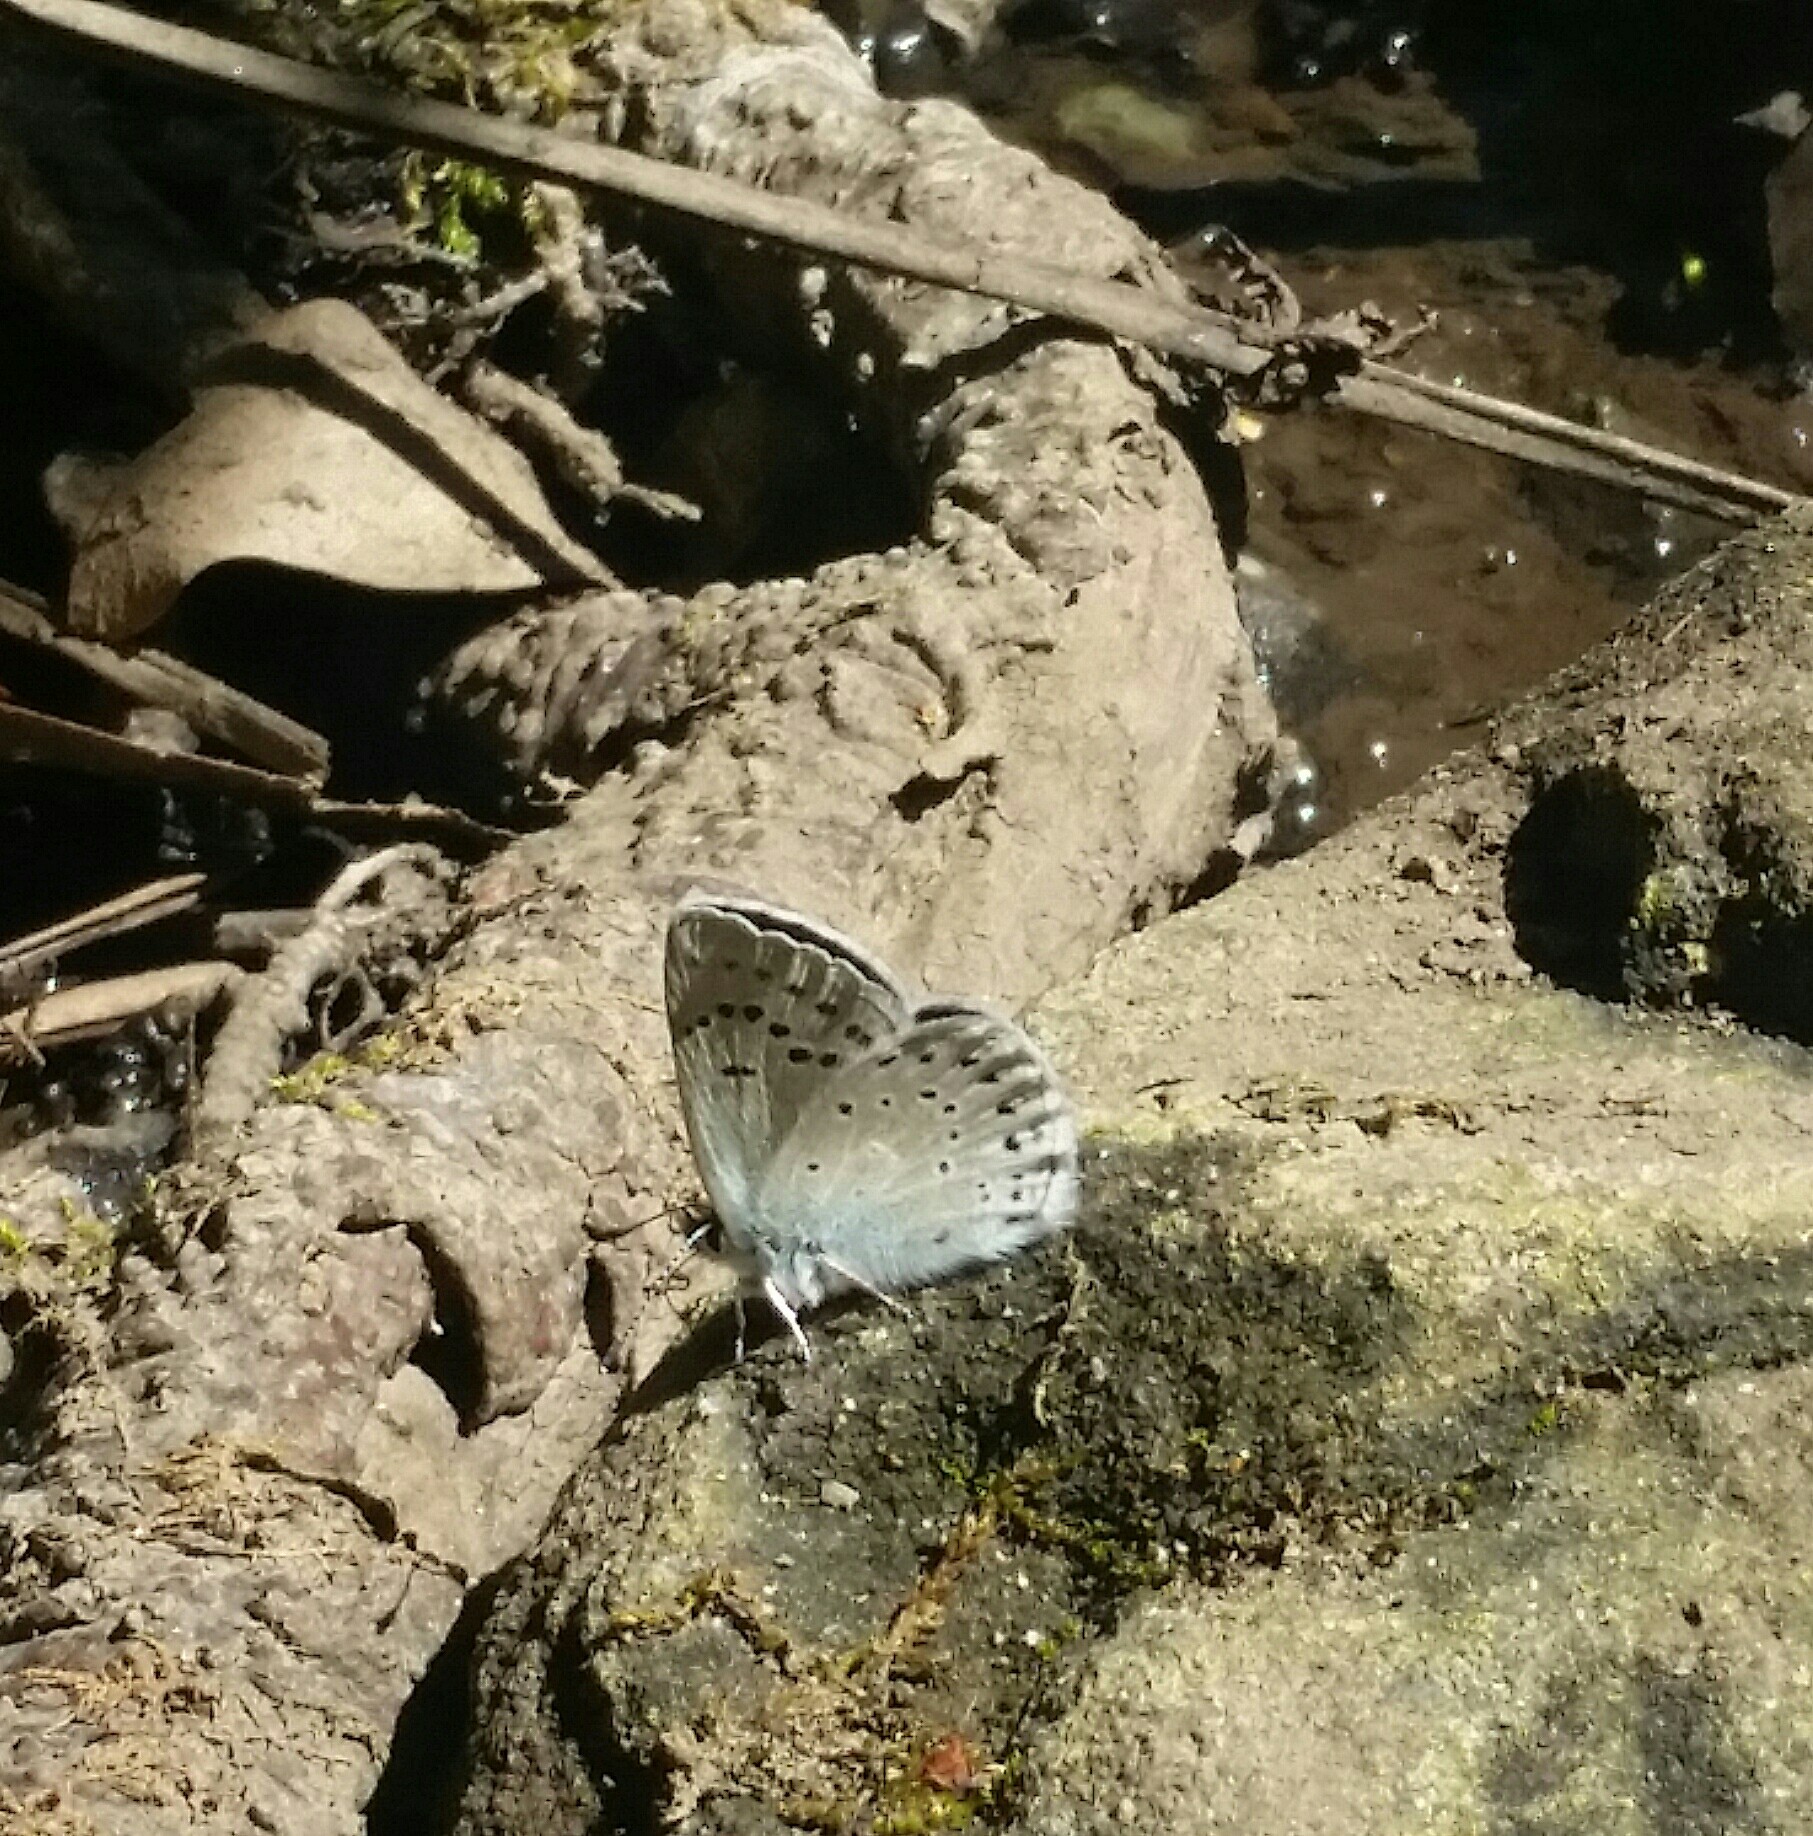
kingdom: Animalia
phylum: Arthropoda
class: Insecta
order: Lepidoptera
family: Lycaenidae
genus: Icaricia
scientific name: Icaricia icarioides
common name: Boisduval's blue
